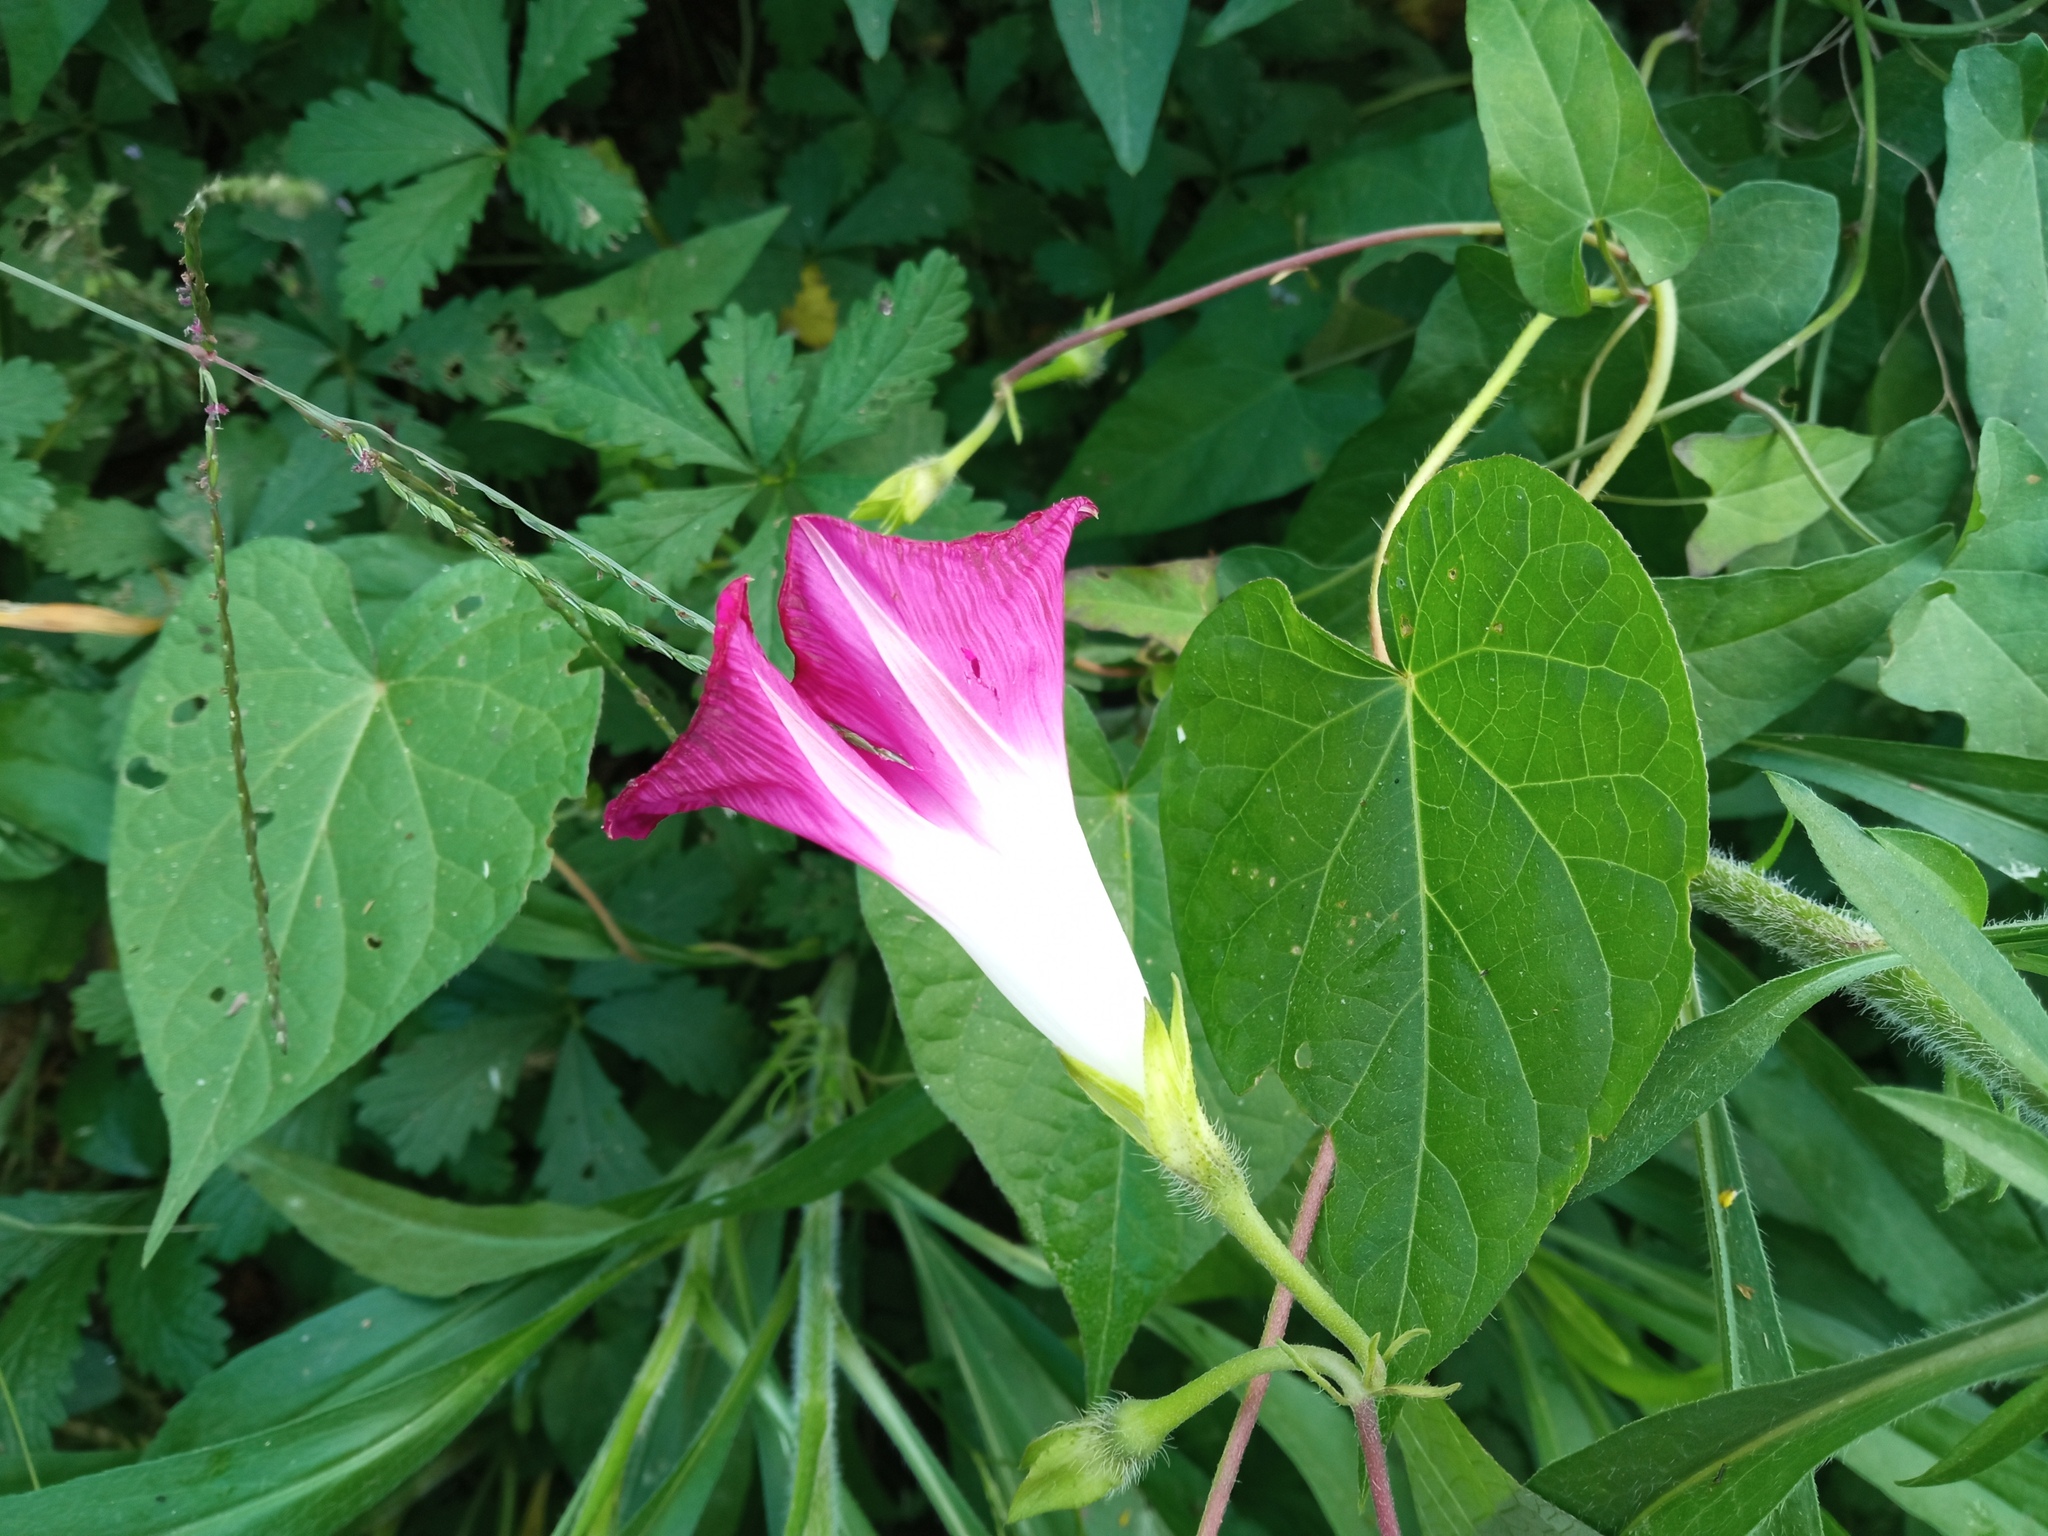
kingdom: Plantae
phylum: Tracheophyta
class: Magnoliopsida
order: Solanales
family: Convolvulaceae
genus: Ipomoea
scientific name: Ipomoea purpurea
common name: Common morning-glory
